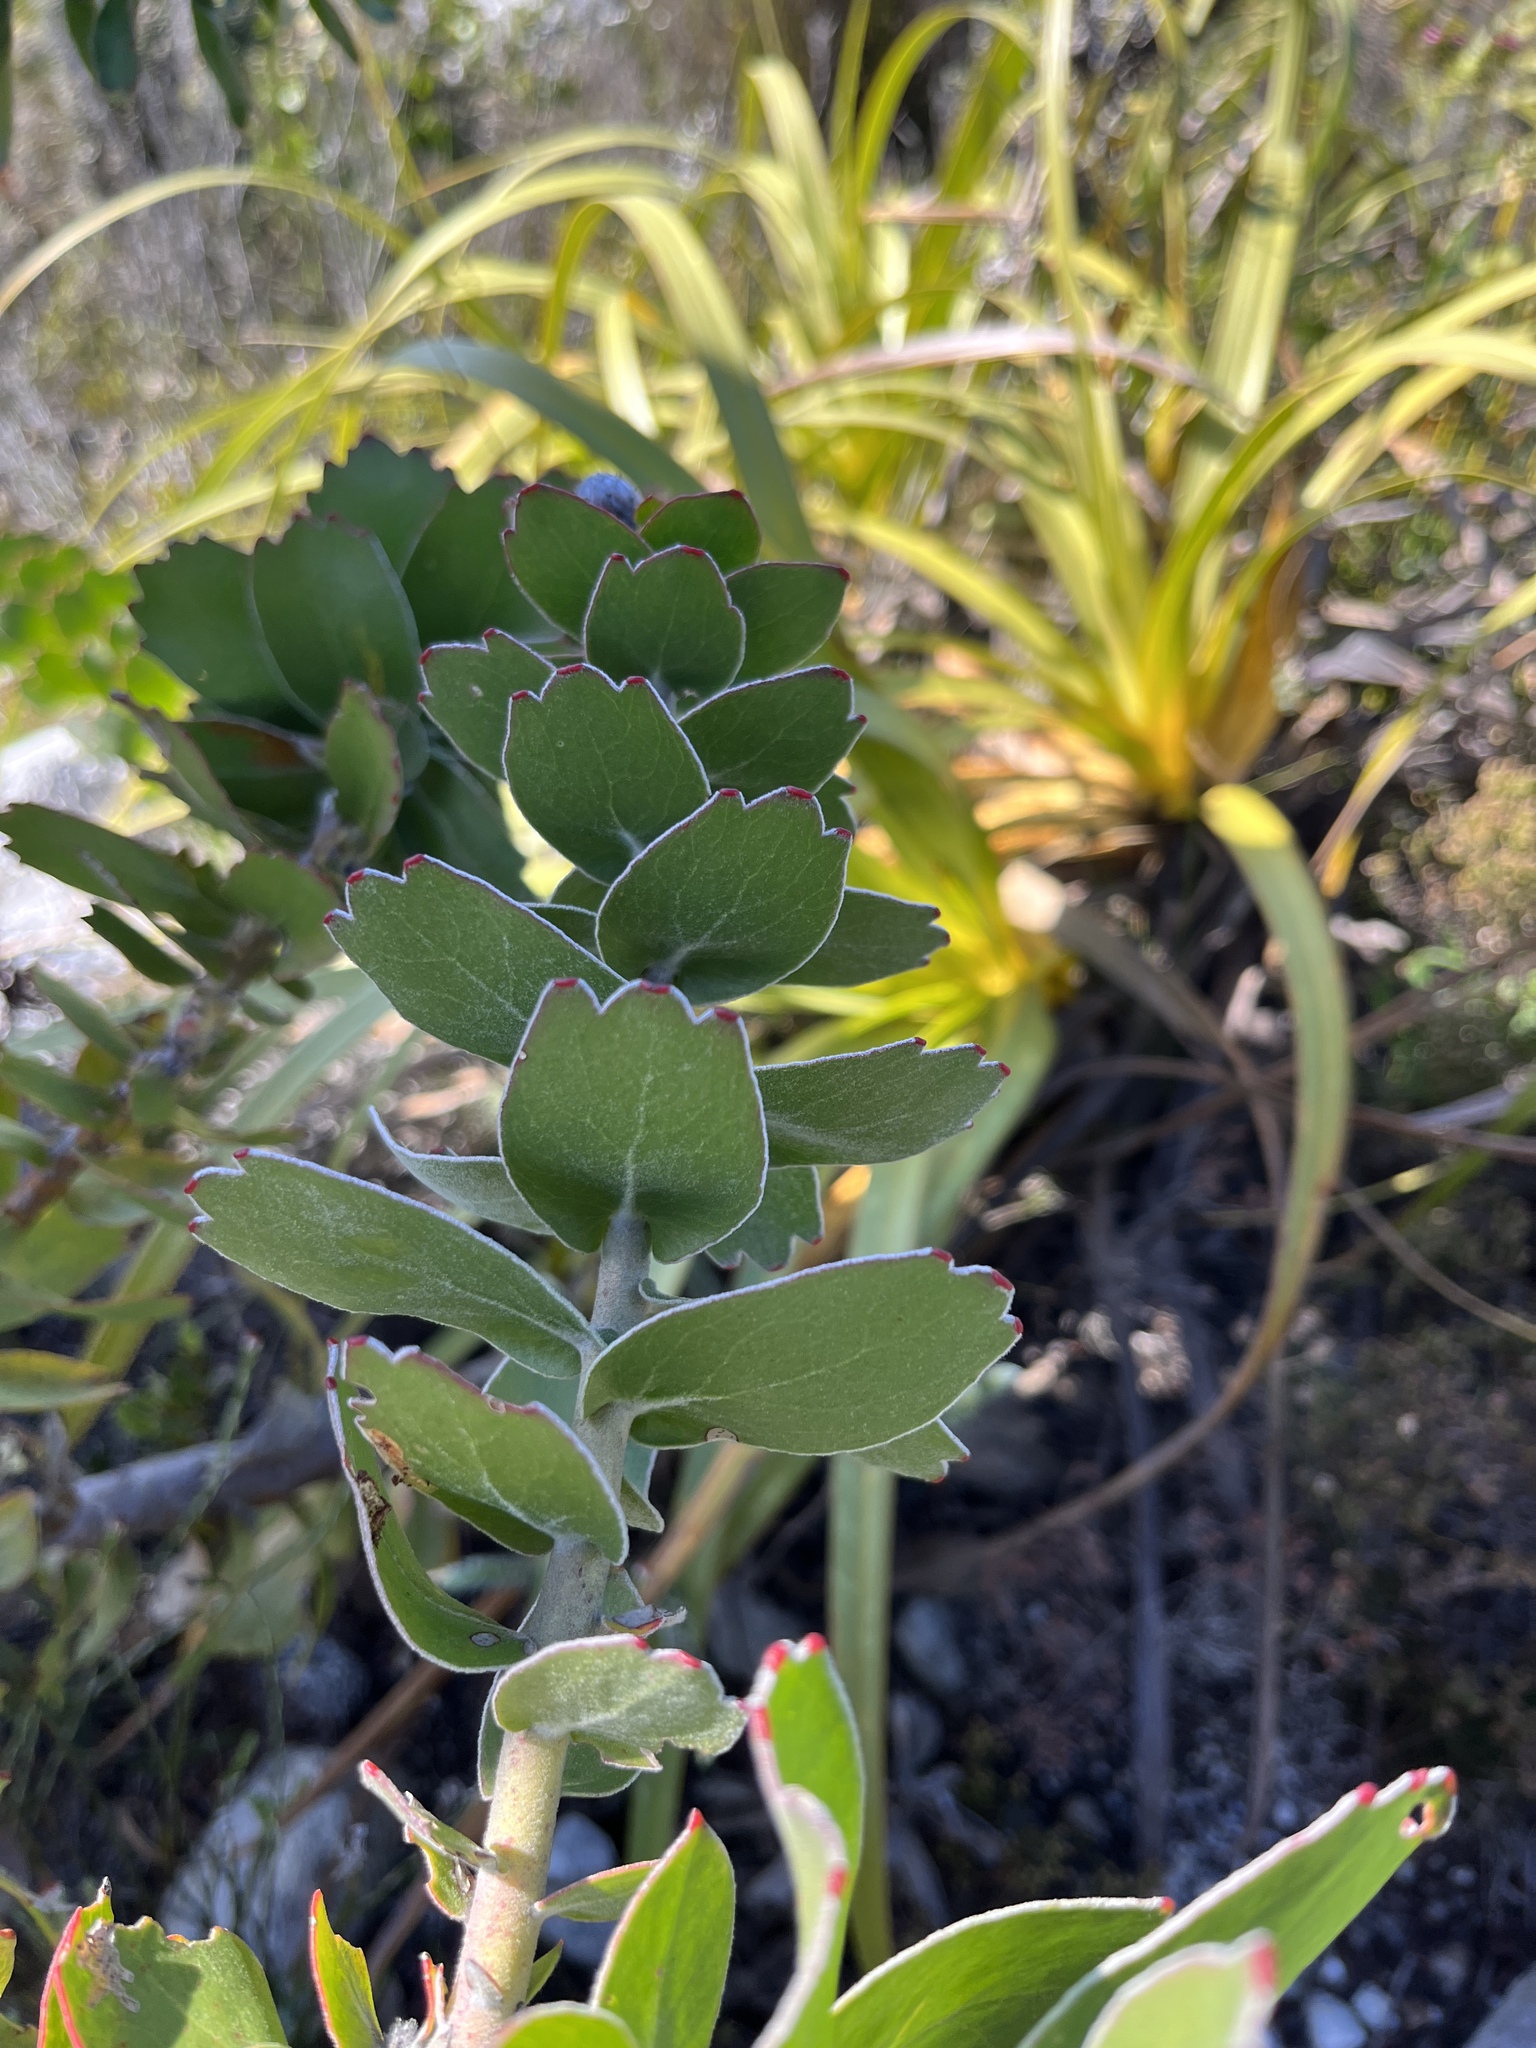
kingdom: Plantae
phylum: Tracheophyta
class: Magnoliopsida
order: Proteales
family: Proteaceae
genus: Leucospermum
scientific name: Leucospermum patersonii
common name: False tree pincushion
